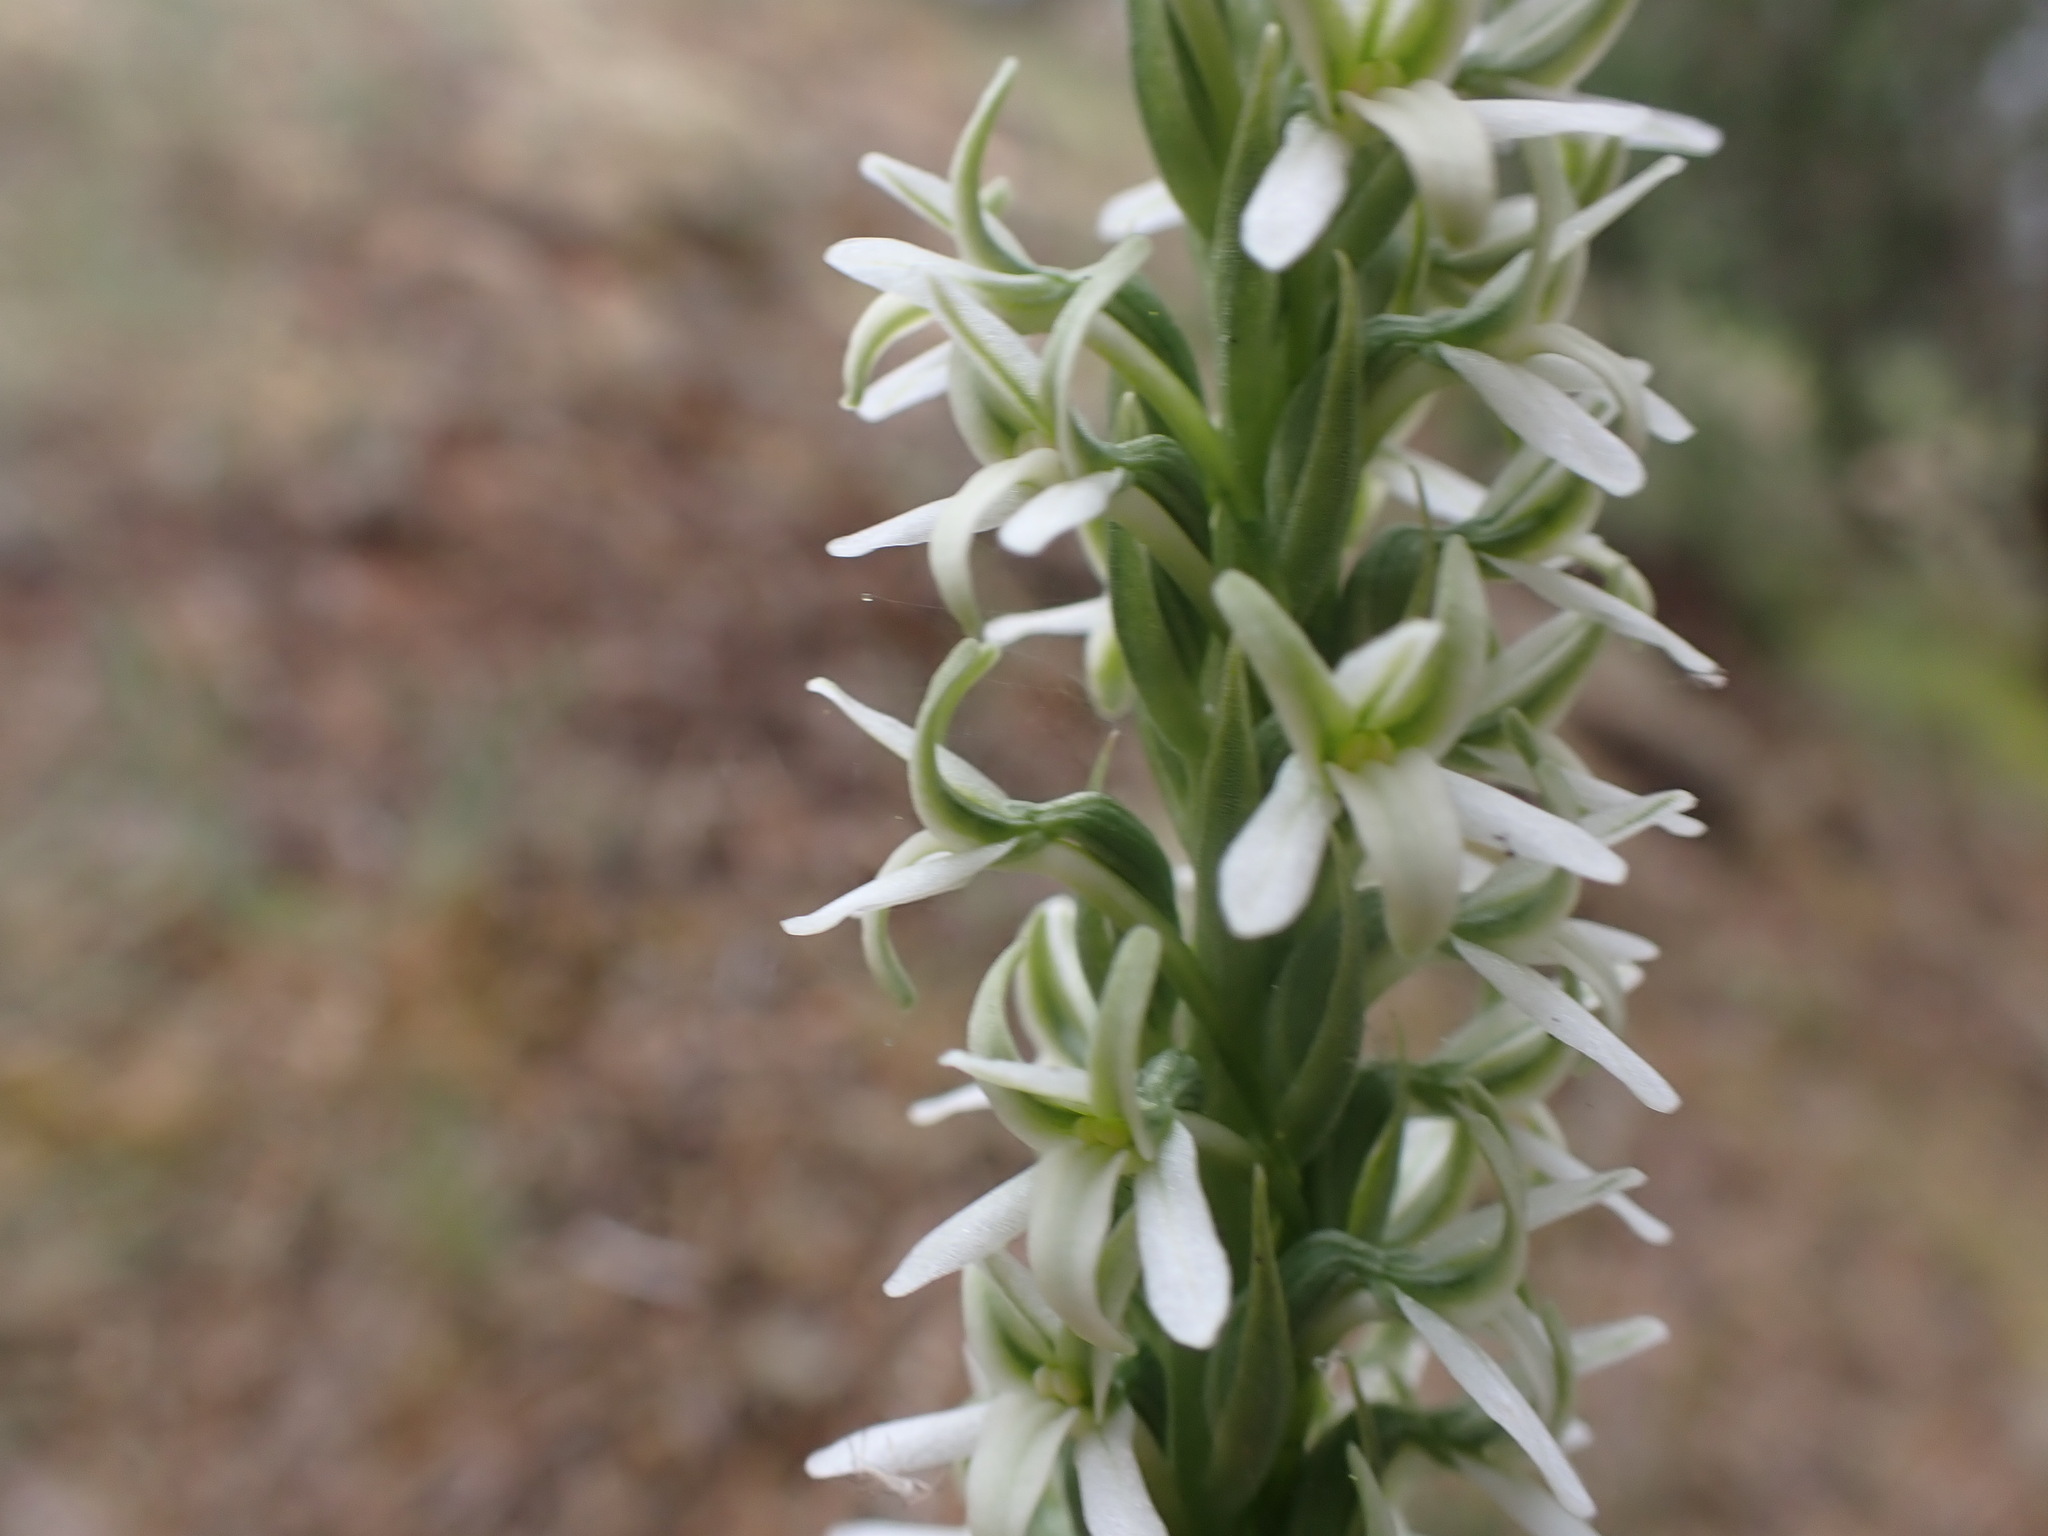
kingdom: Plantae
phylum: Tracheophyta
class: Liliopsida
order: Asparagales
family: Orchidaceae
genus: Platanthera
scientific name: Platanthera elegans
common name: Coast piperia
